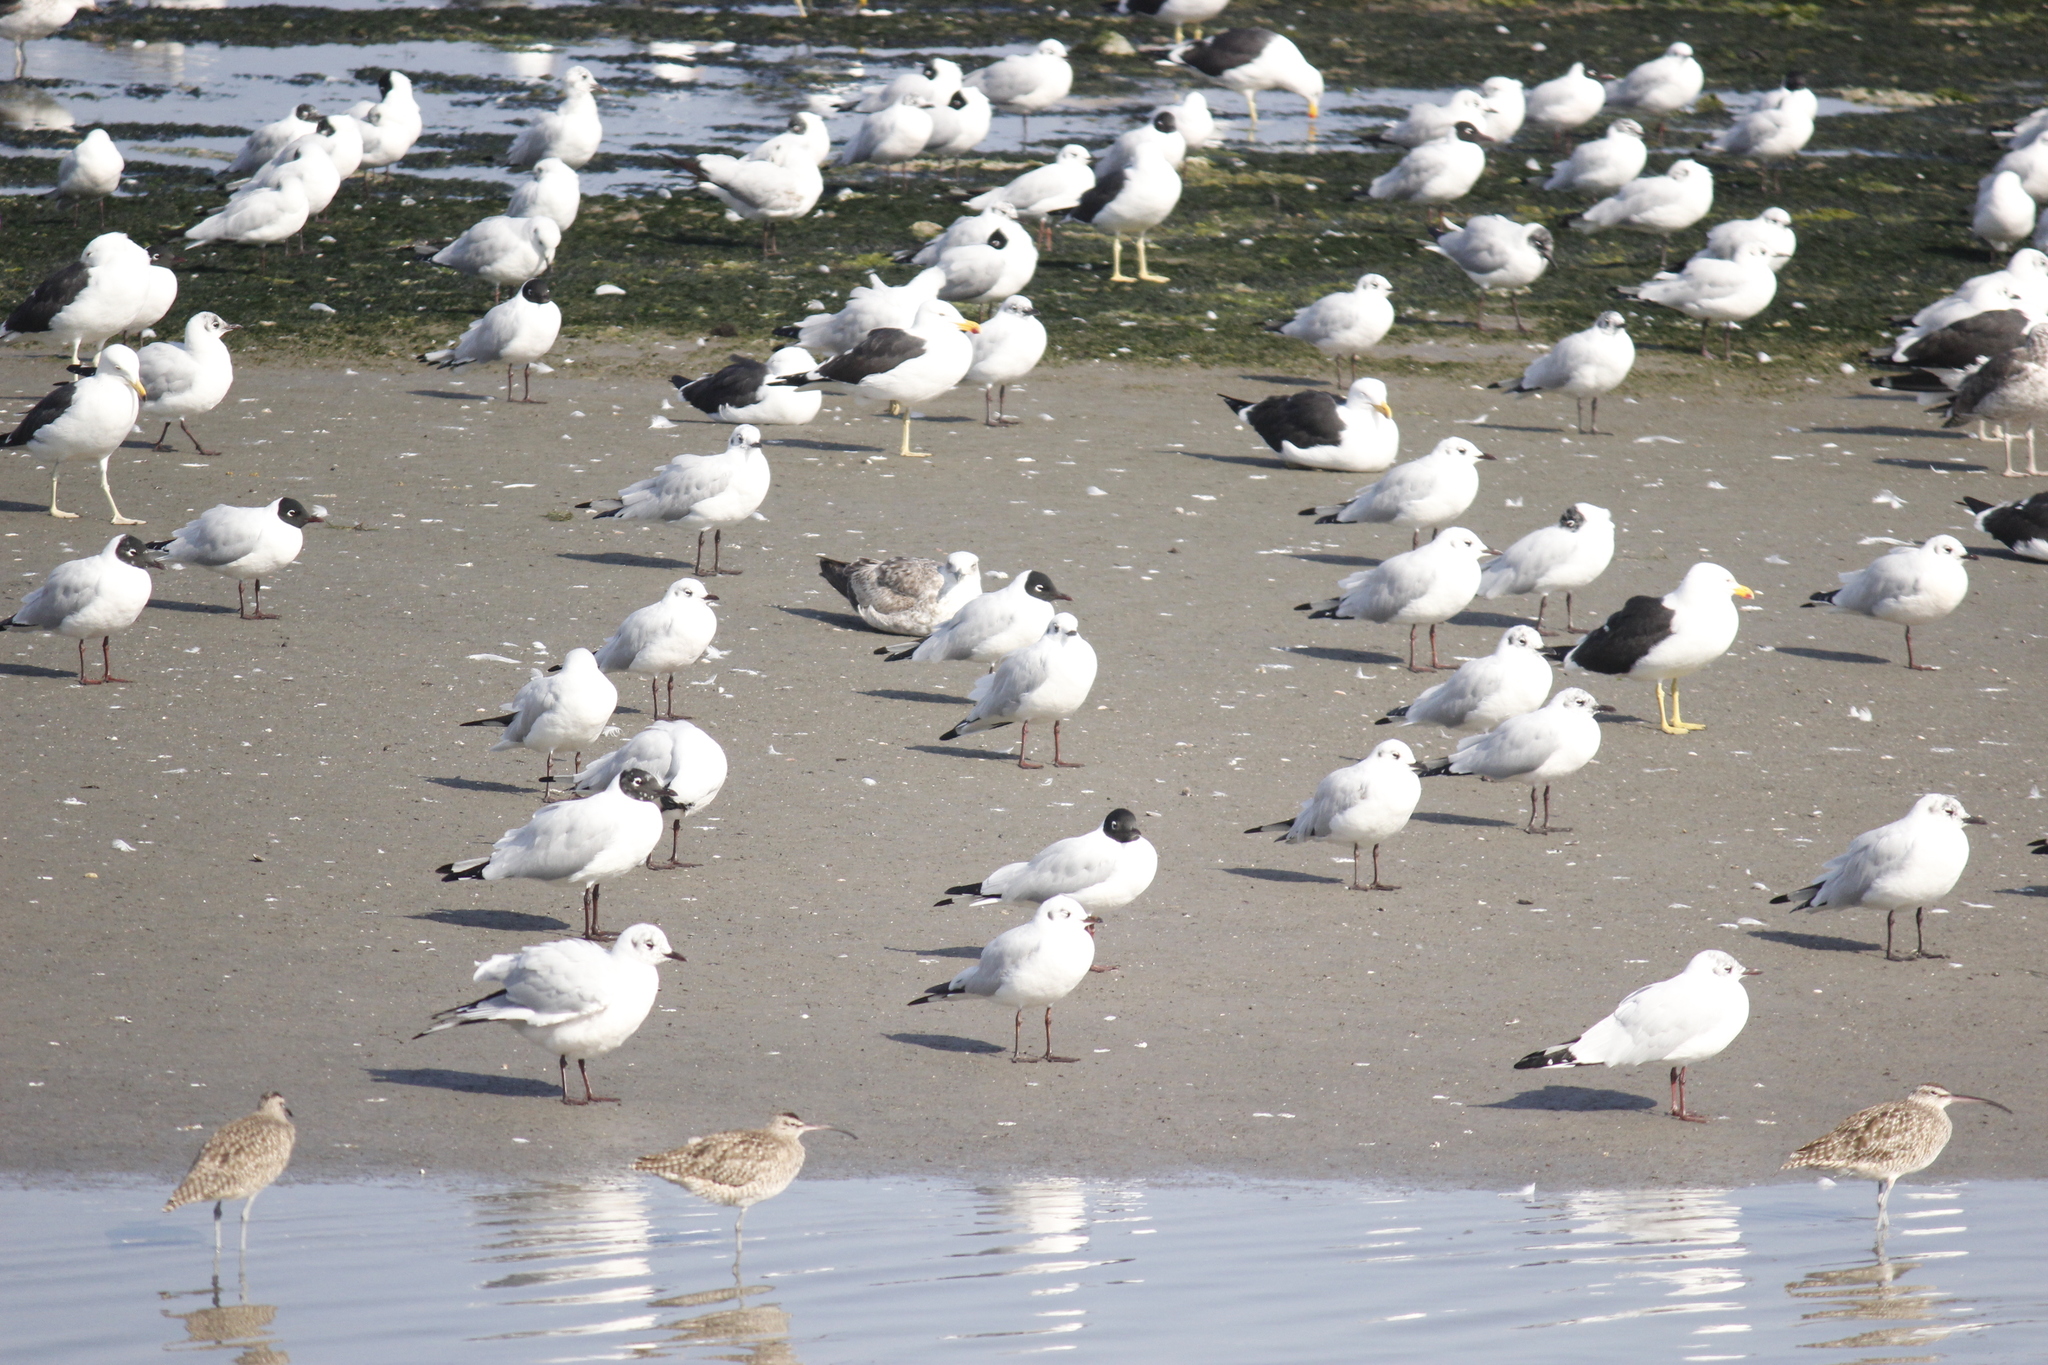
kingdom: Animalia
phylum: Chordata
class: Aves
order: Charadriiformes
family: Laridae
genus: Chroicocephalus
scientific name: Chroicocephalus serranus
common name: Andean gull
